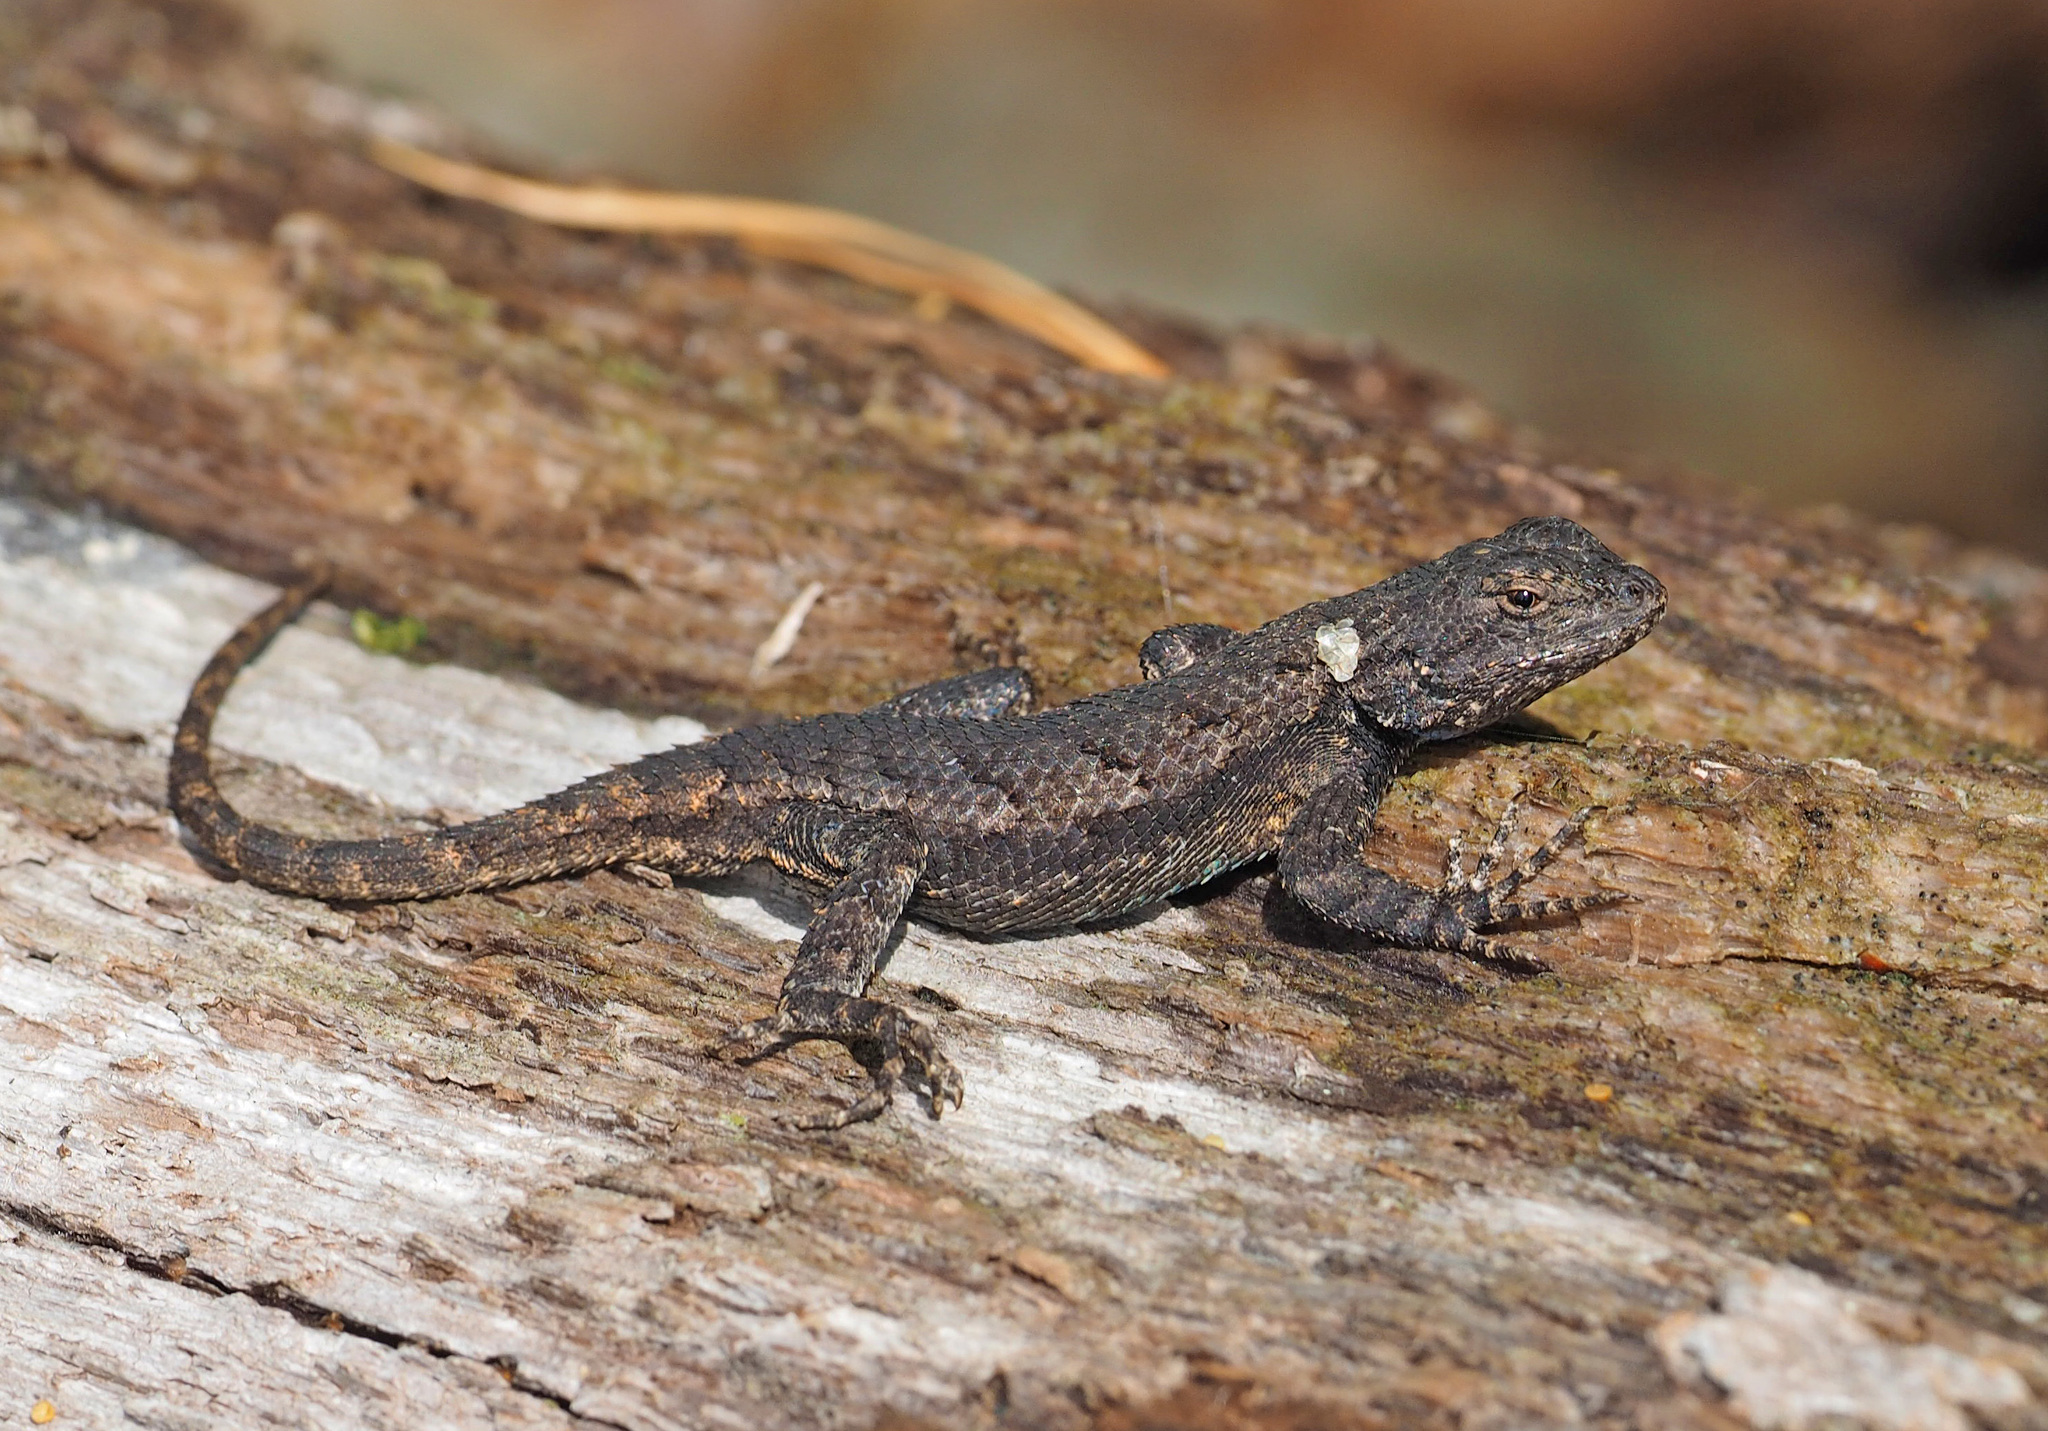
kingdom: Animalia
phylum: Chordata
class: Squamata
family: Phrynosomatidae
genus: Sceloporus
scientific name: Sceloporus undulatus
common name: Eastern fence lizard
